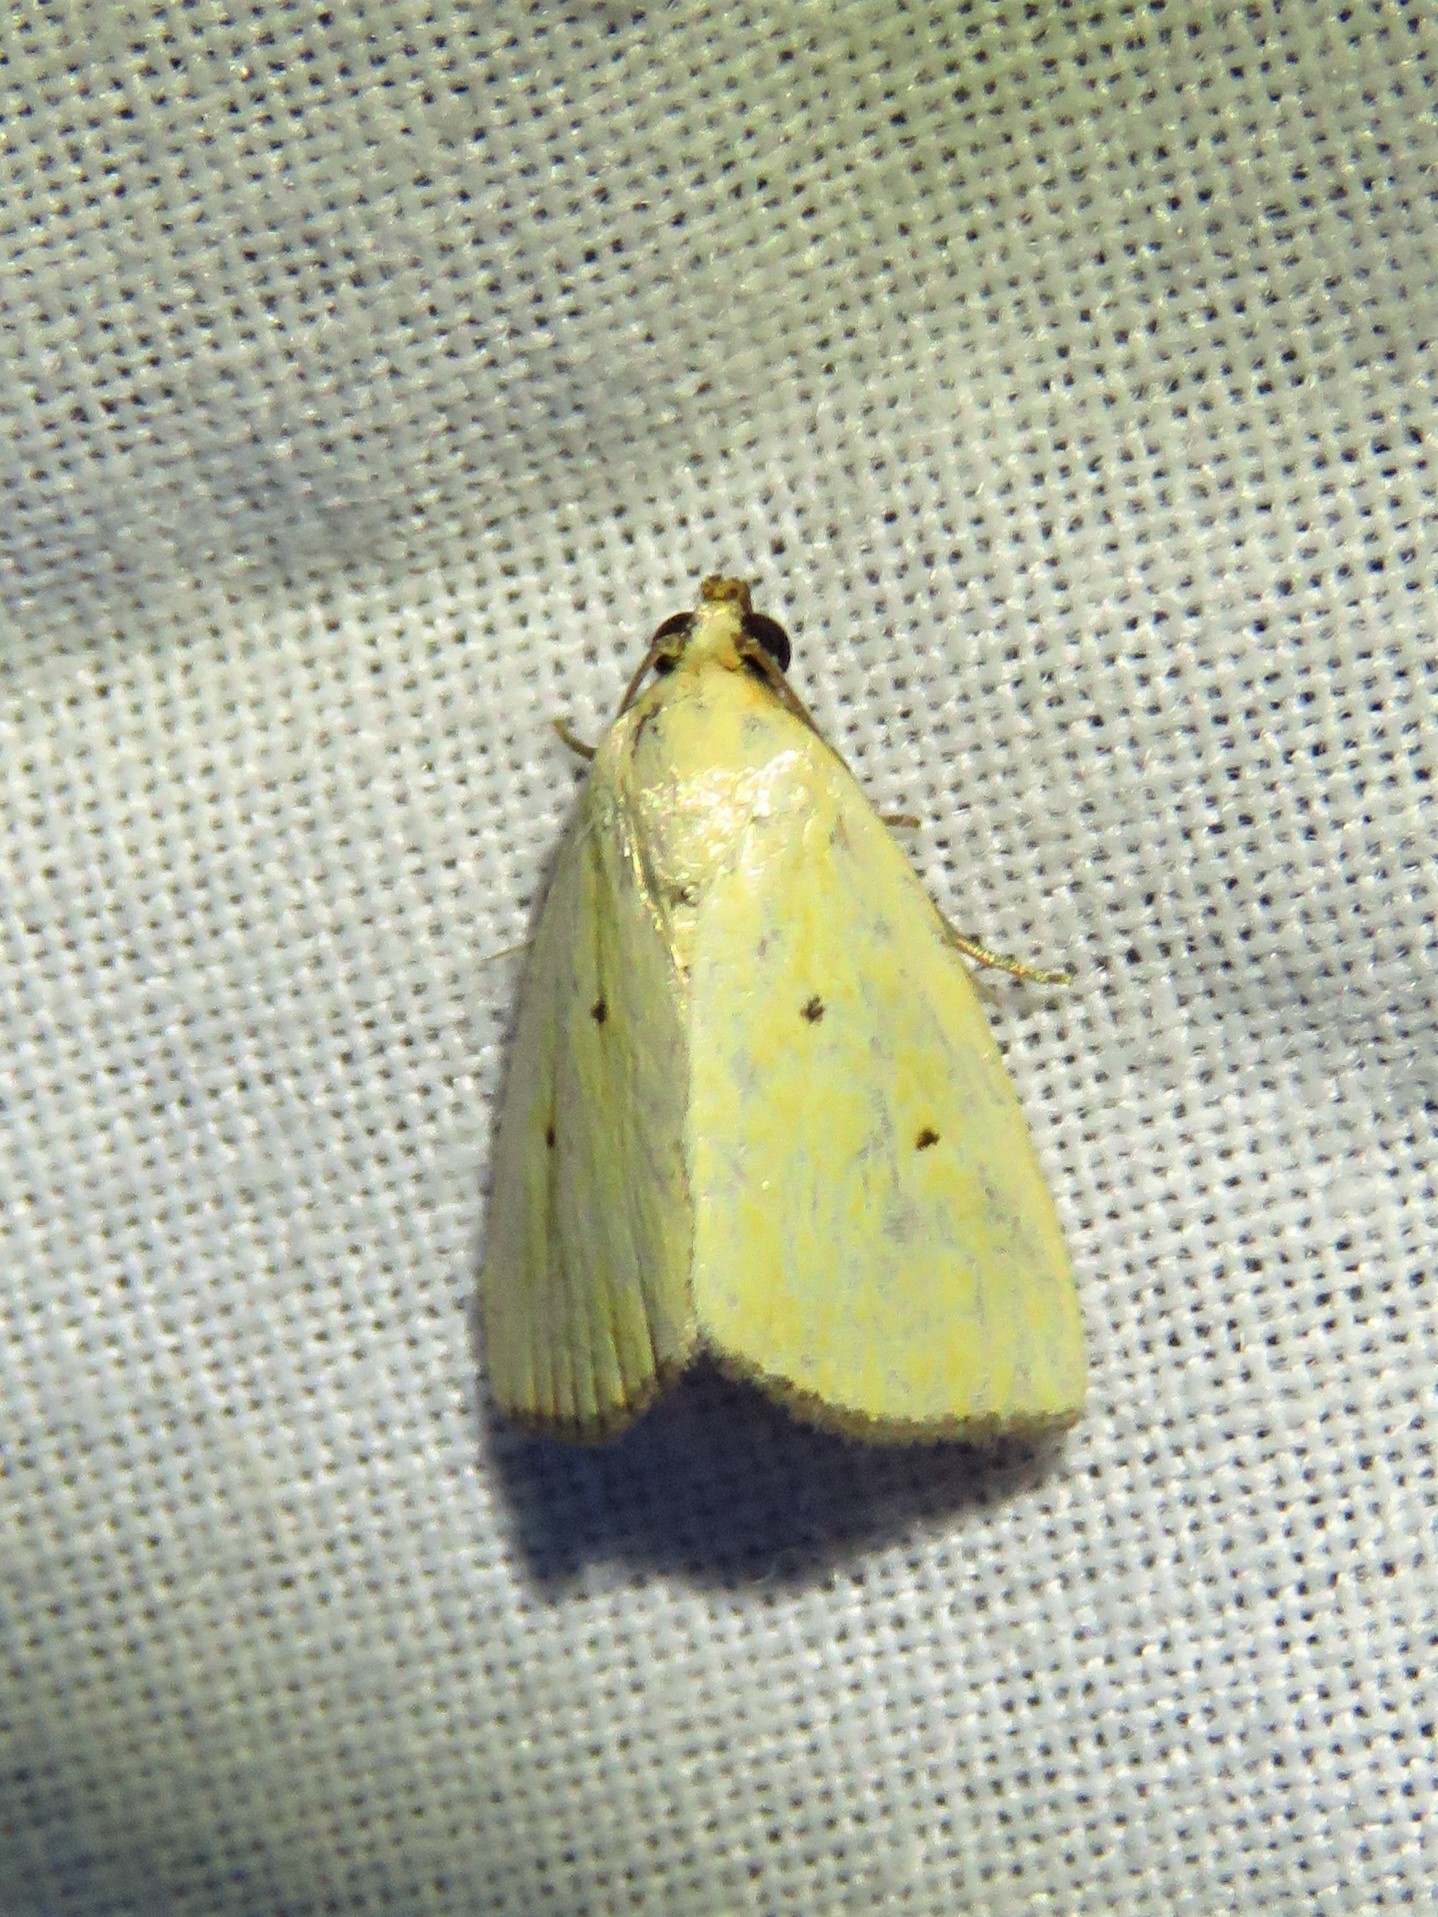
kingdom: Animalia
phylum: Arthropoda
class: Insecta
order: Lepidoptera
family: Noctuidae
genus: Marimatha
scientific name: Marimatha nigrofimbria
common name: Black-bordered lemon moth
